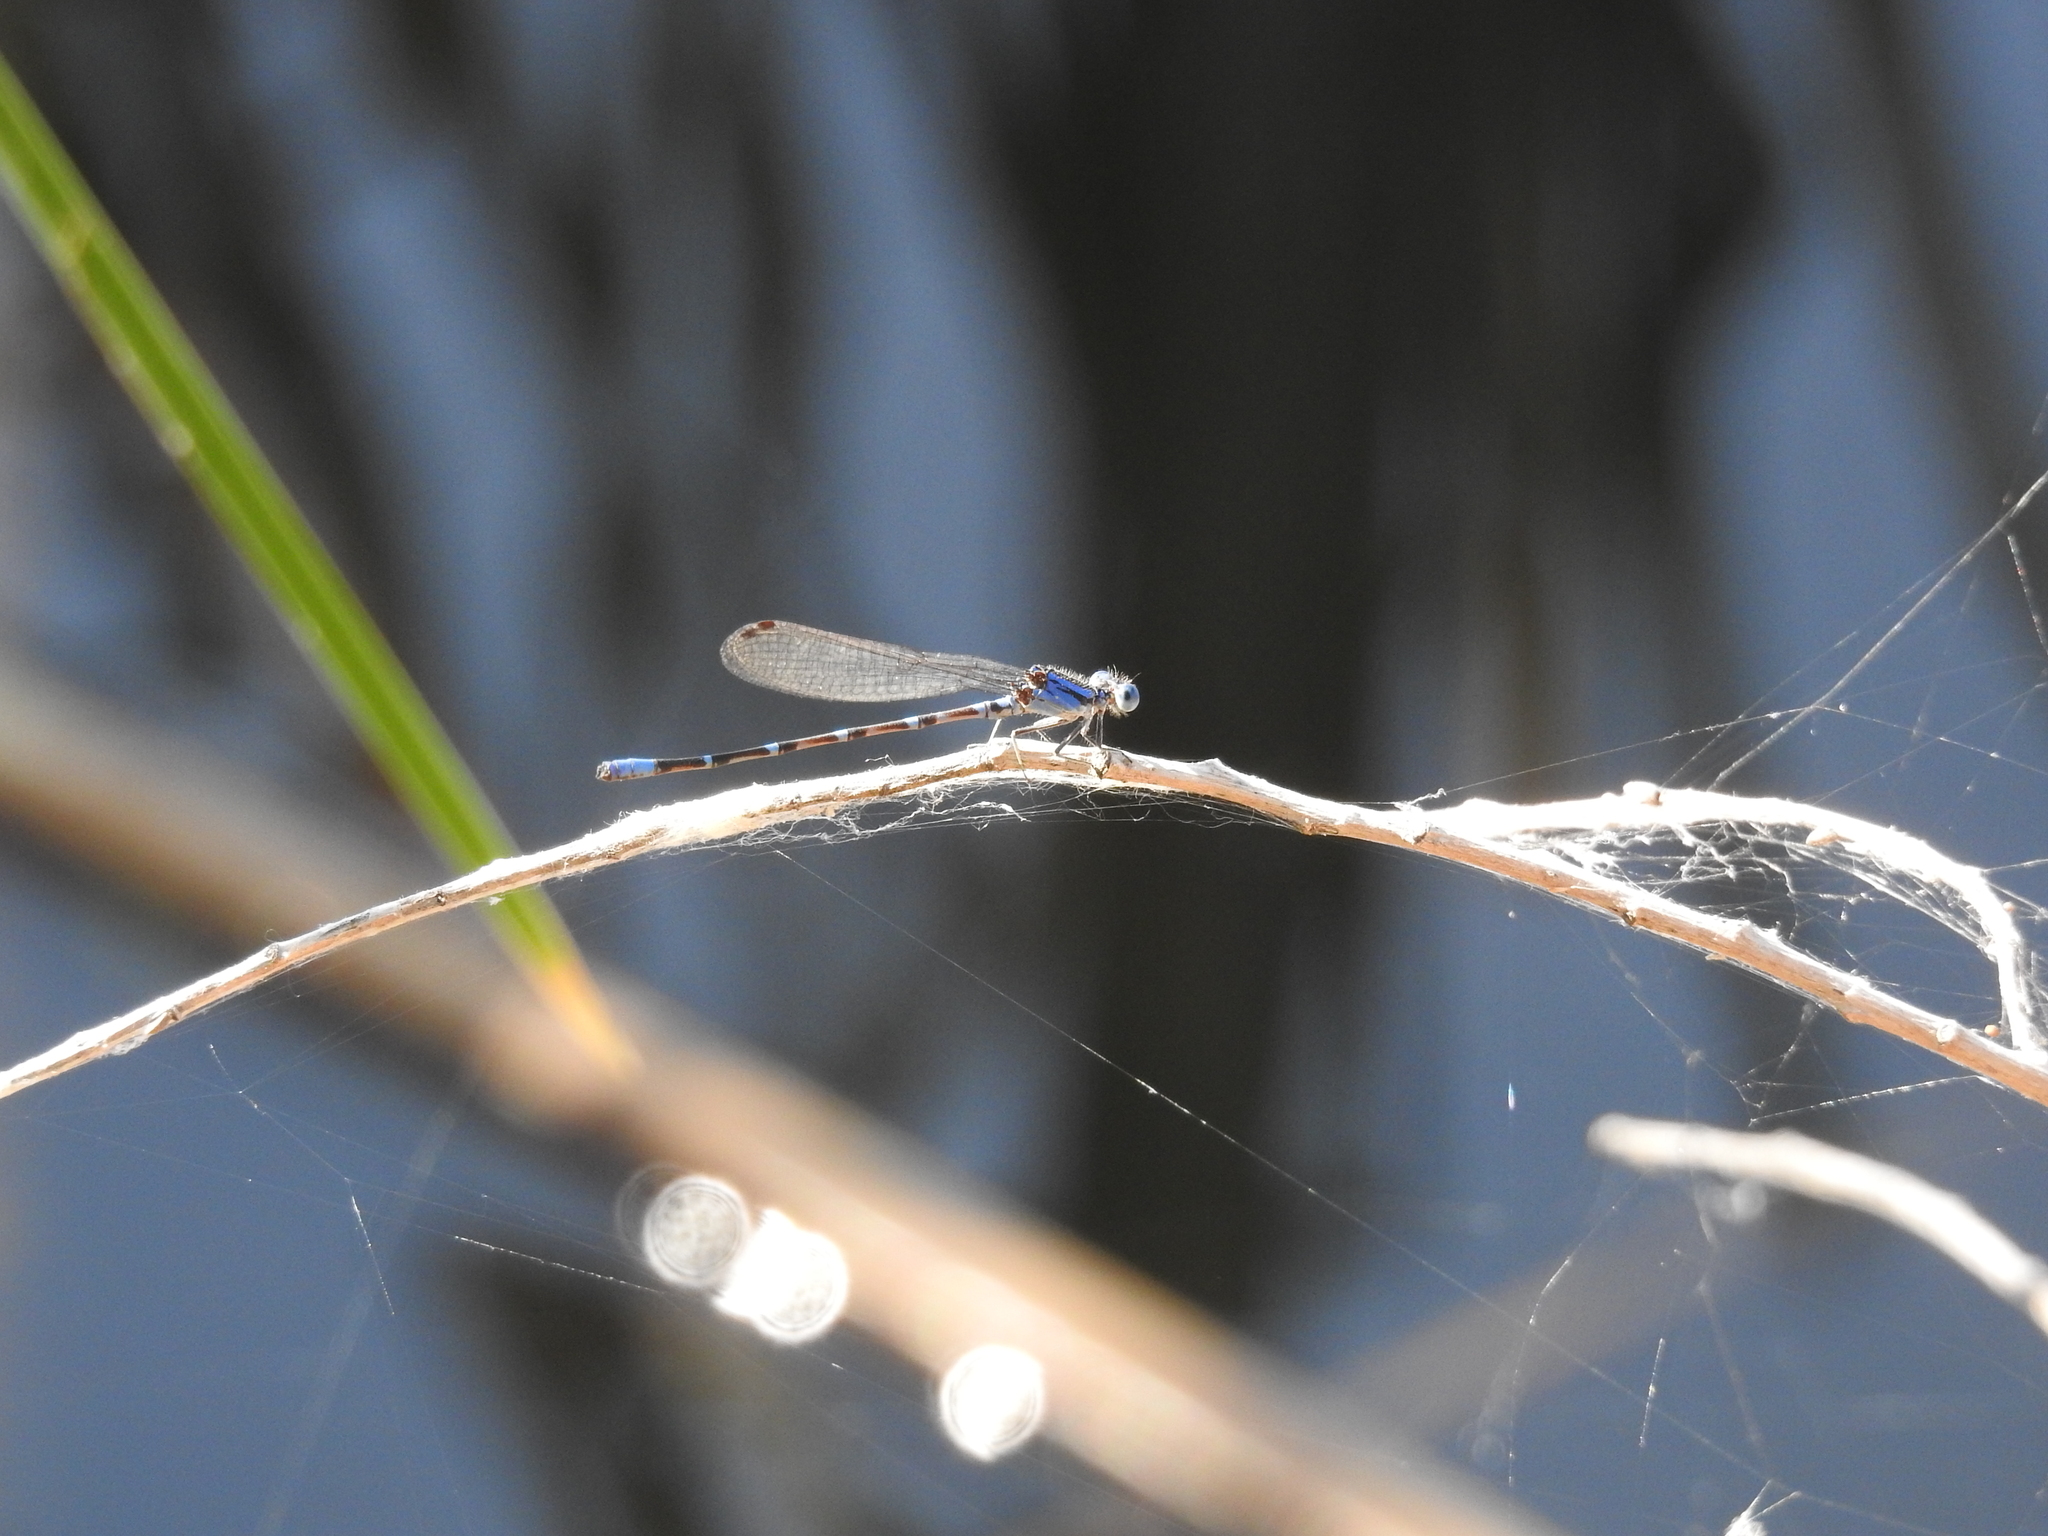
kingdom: Animalia
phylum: Arthropoda
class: Insecta
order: Odonata
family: Coenagrionidae
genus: Argia
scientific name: Argia sedula
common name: Blue-ringed dancer
